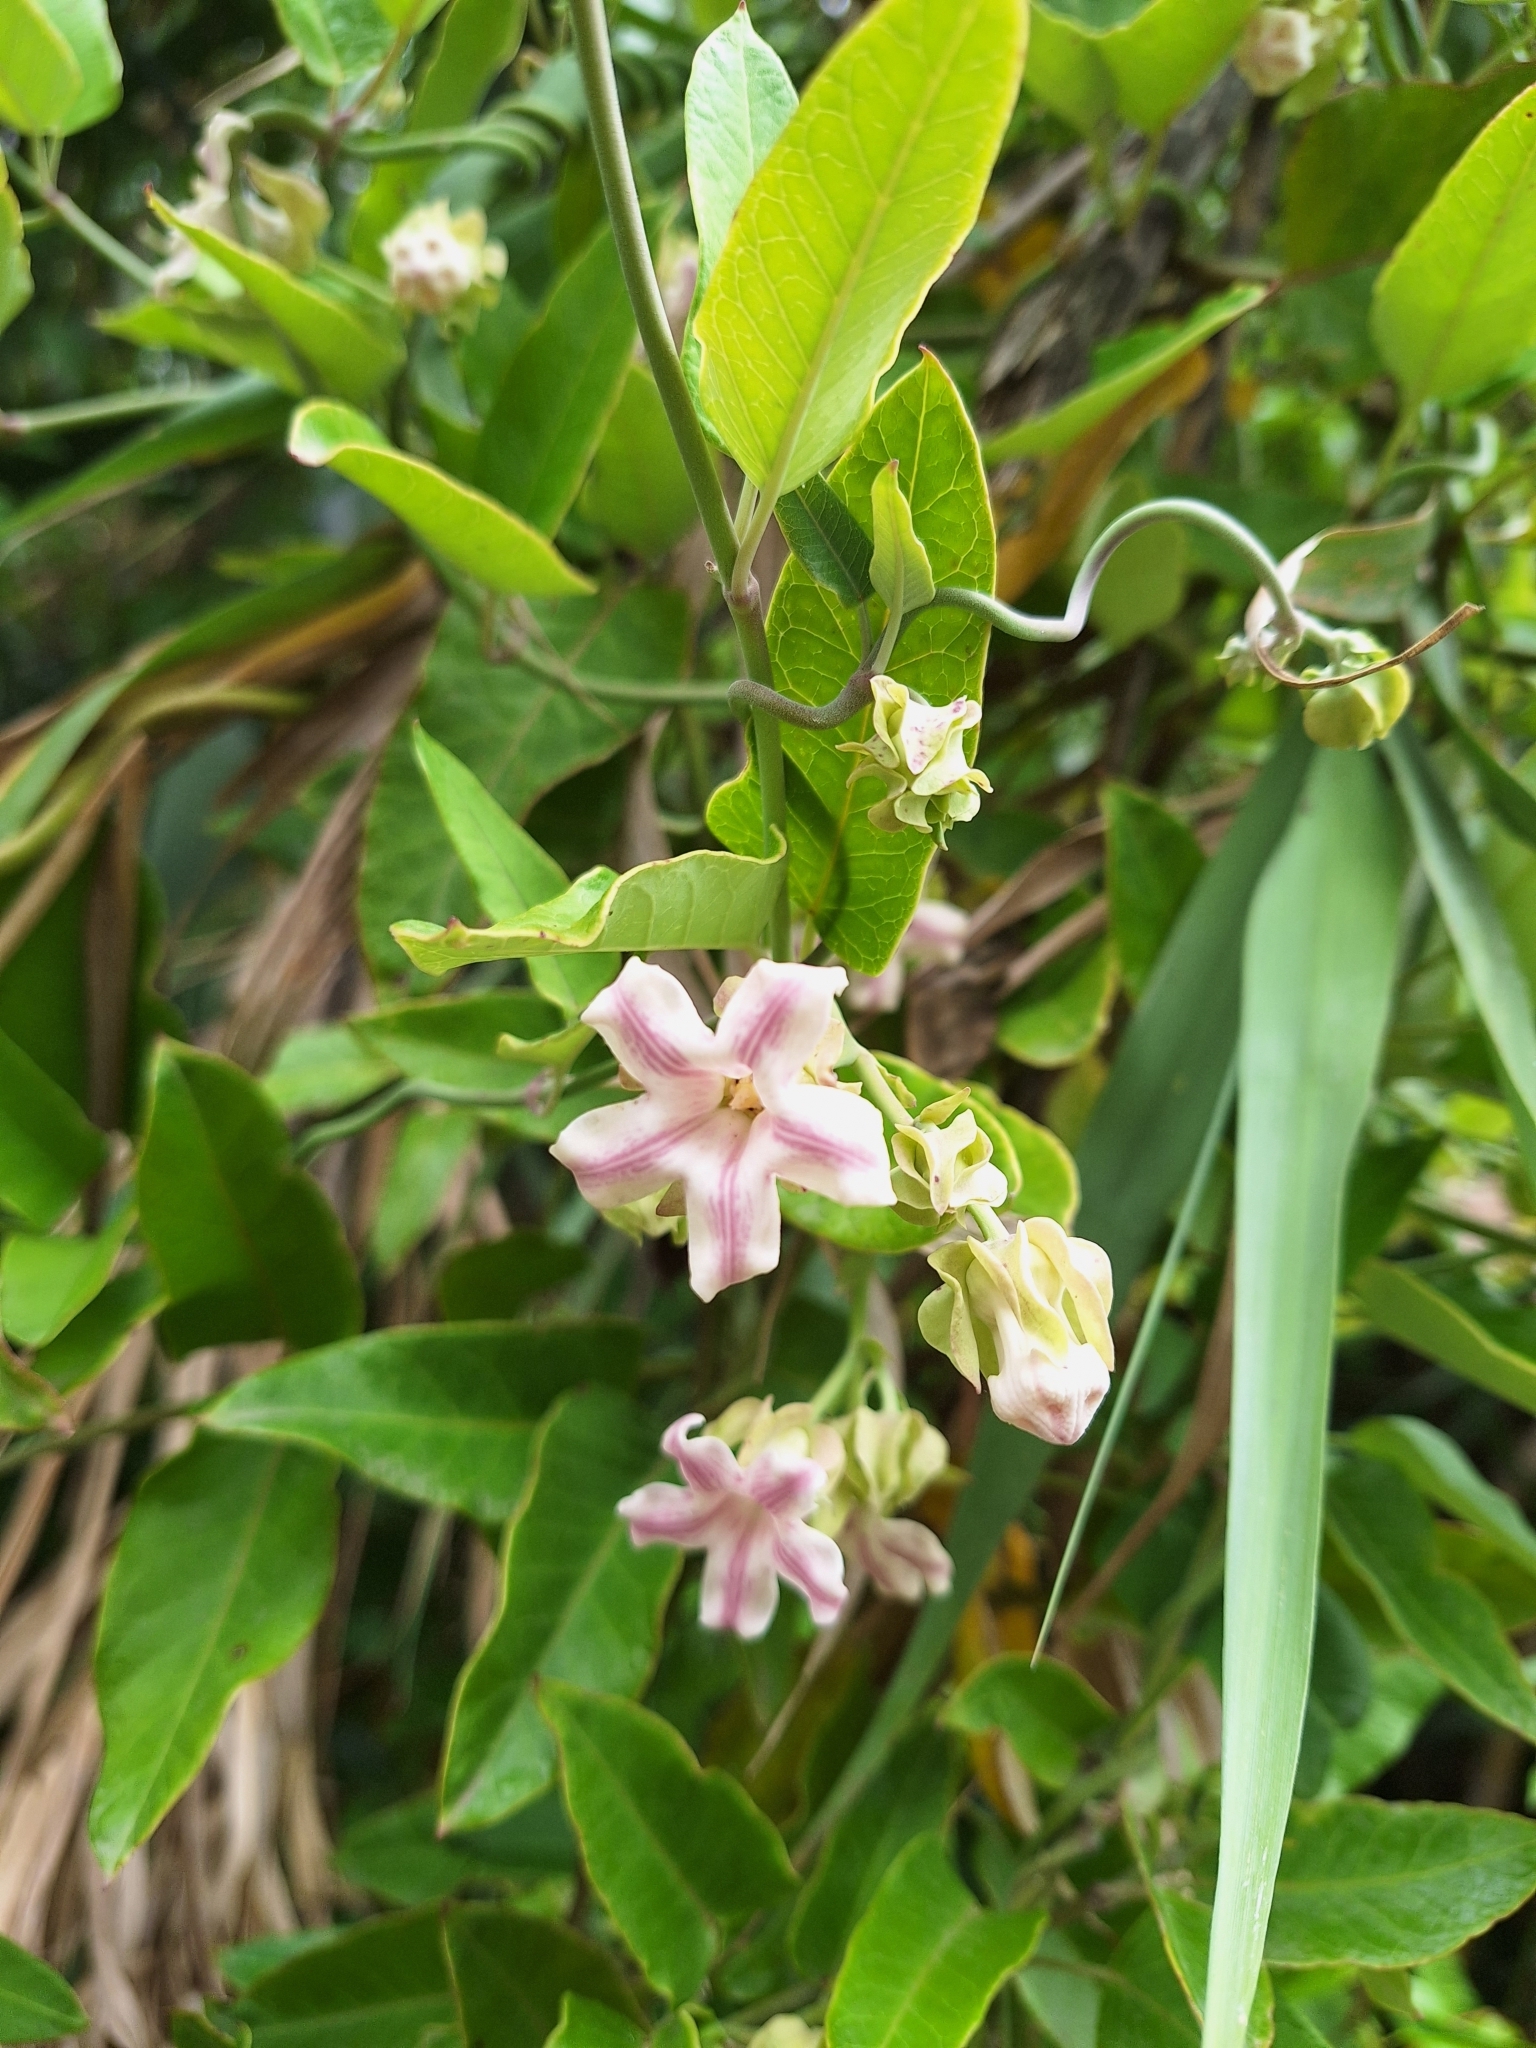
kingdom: Plantae
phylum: Tracheophyta
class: Magnoliopsida
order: Gentianales
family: Apocynaceae
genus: Araujia
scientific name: Araujia sericifera
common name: White bladderflower
